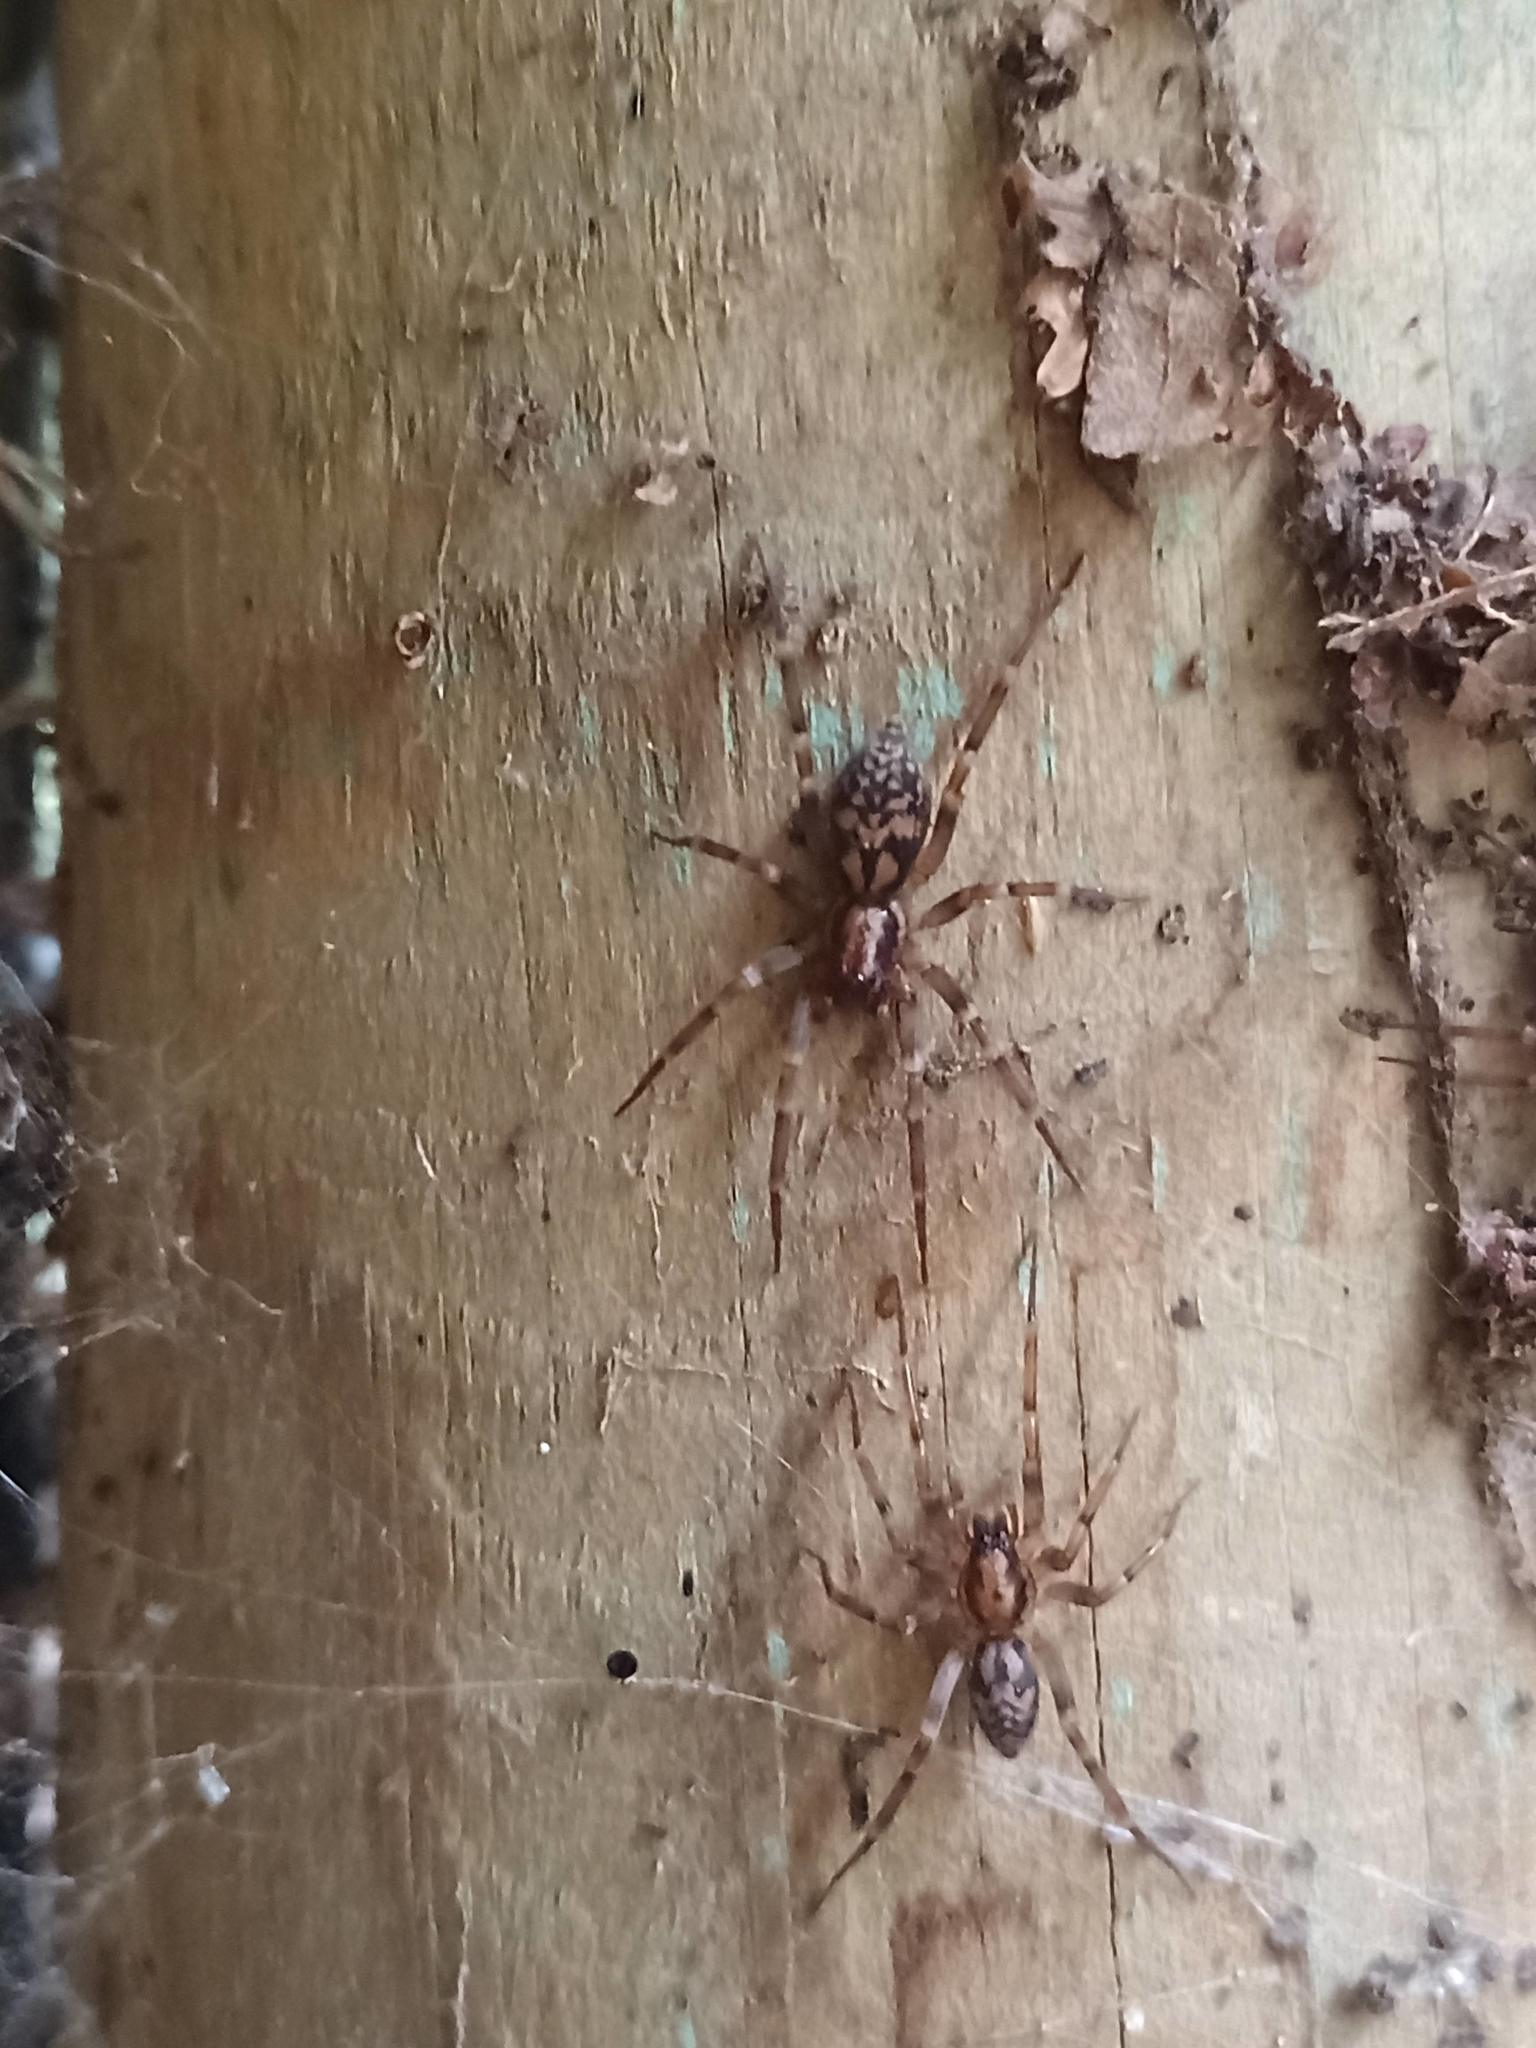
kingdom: Animalia
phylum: Arthropoda
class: Arachnida
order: Araneae
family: Liocranidae
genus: Liocranum
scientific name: Liocranum rupicola
